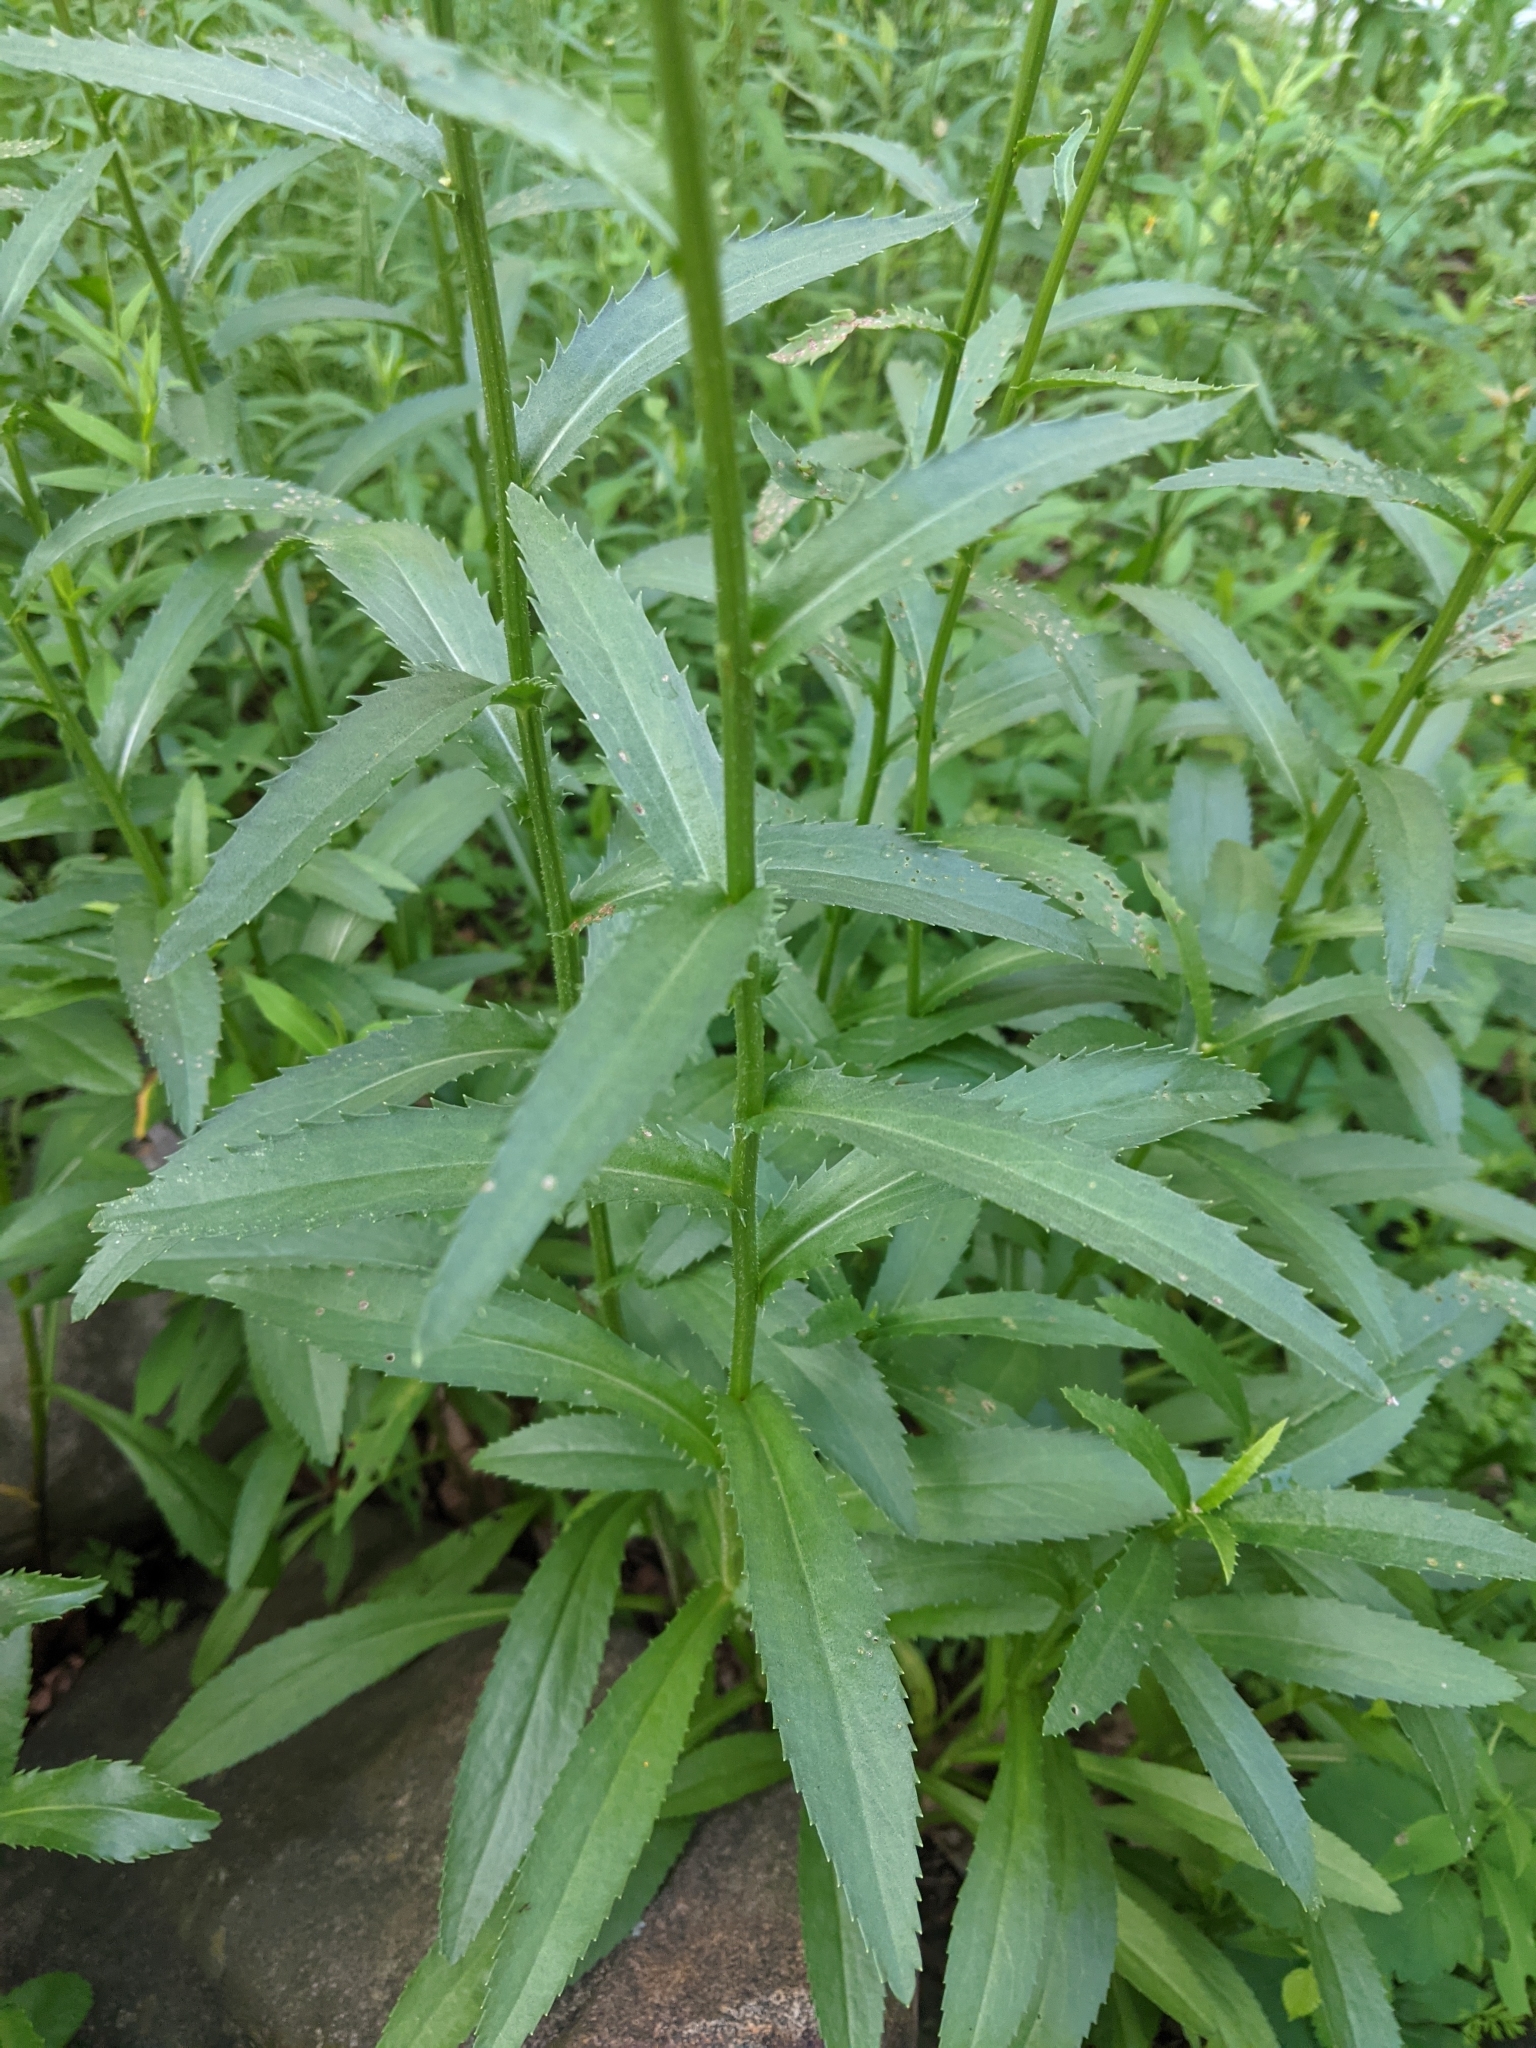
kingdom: Plantae
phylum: Tracheophyta
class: Magnoliopsida
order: Asterales
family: Asteraceae
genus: Leucanthemum
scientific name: Leucanthemum vulgare
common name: Oxeye daisy
